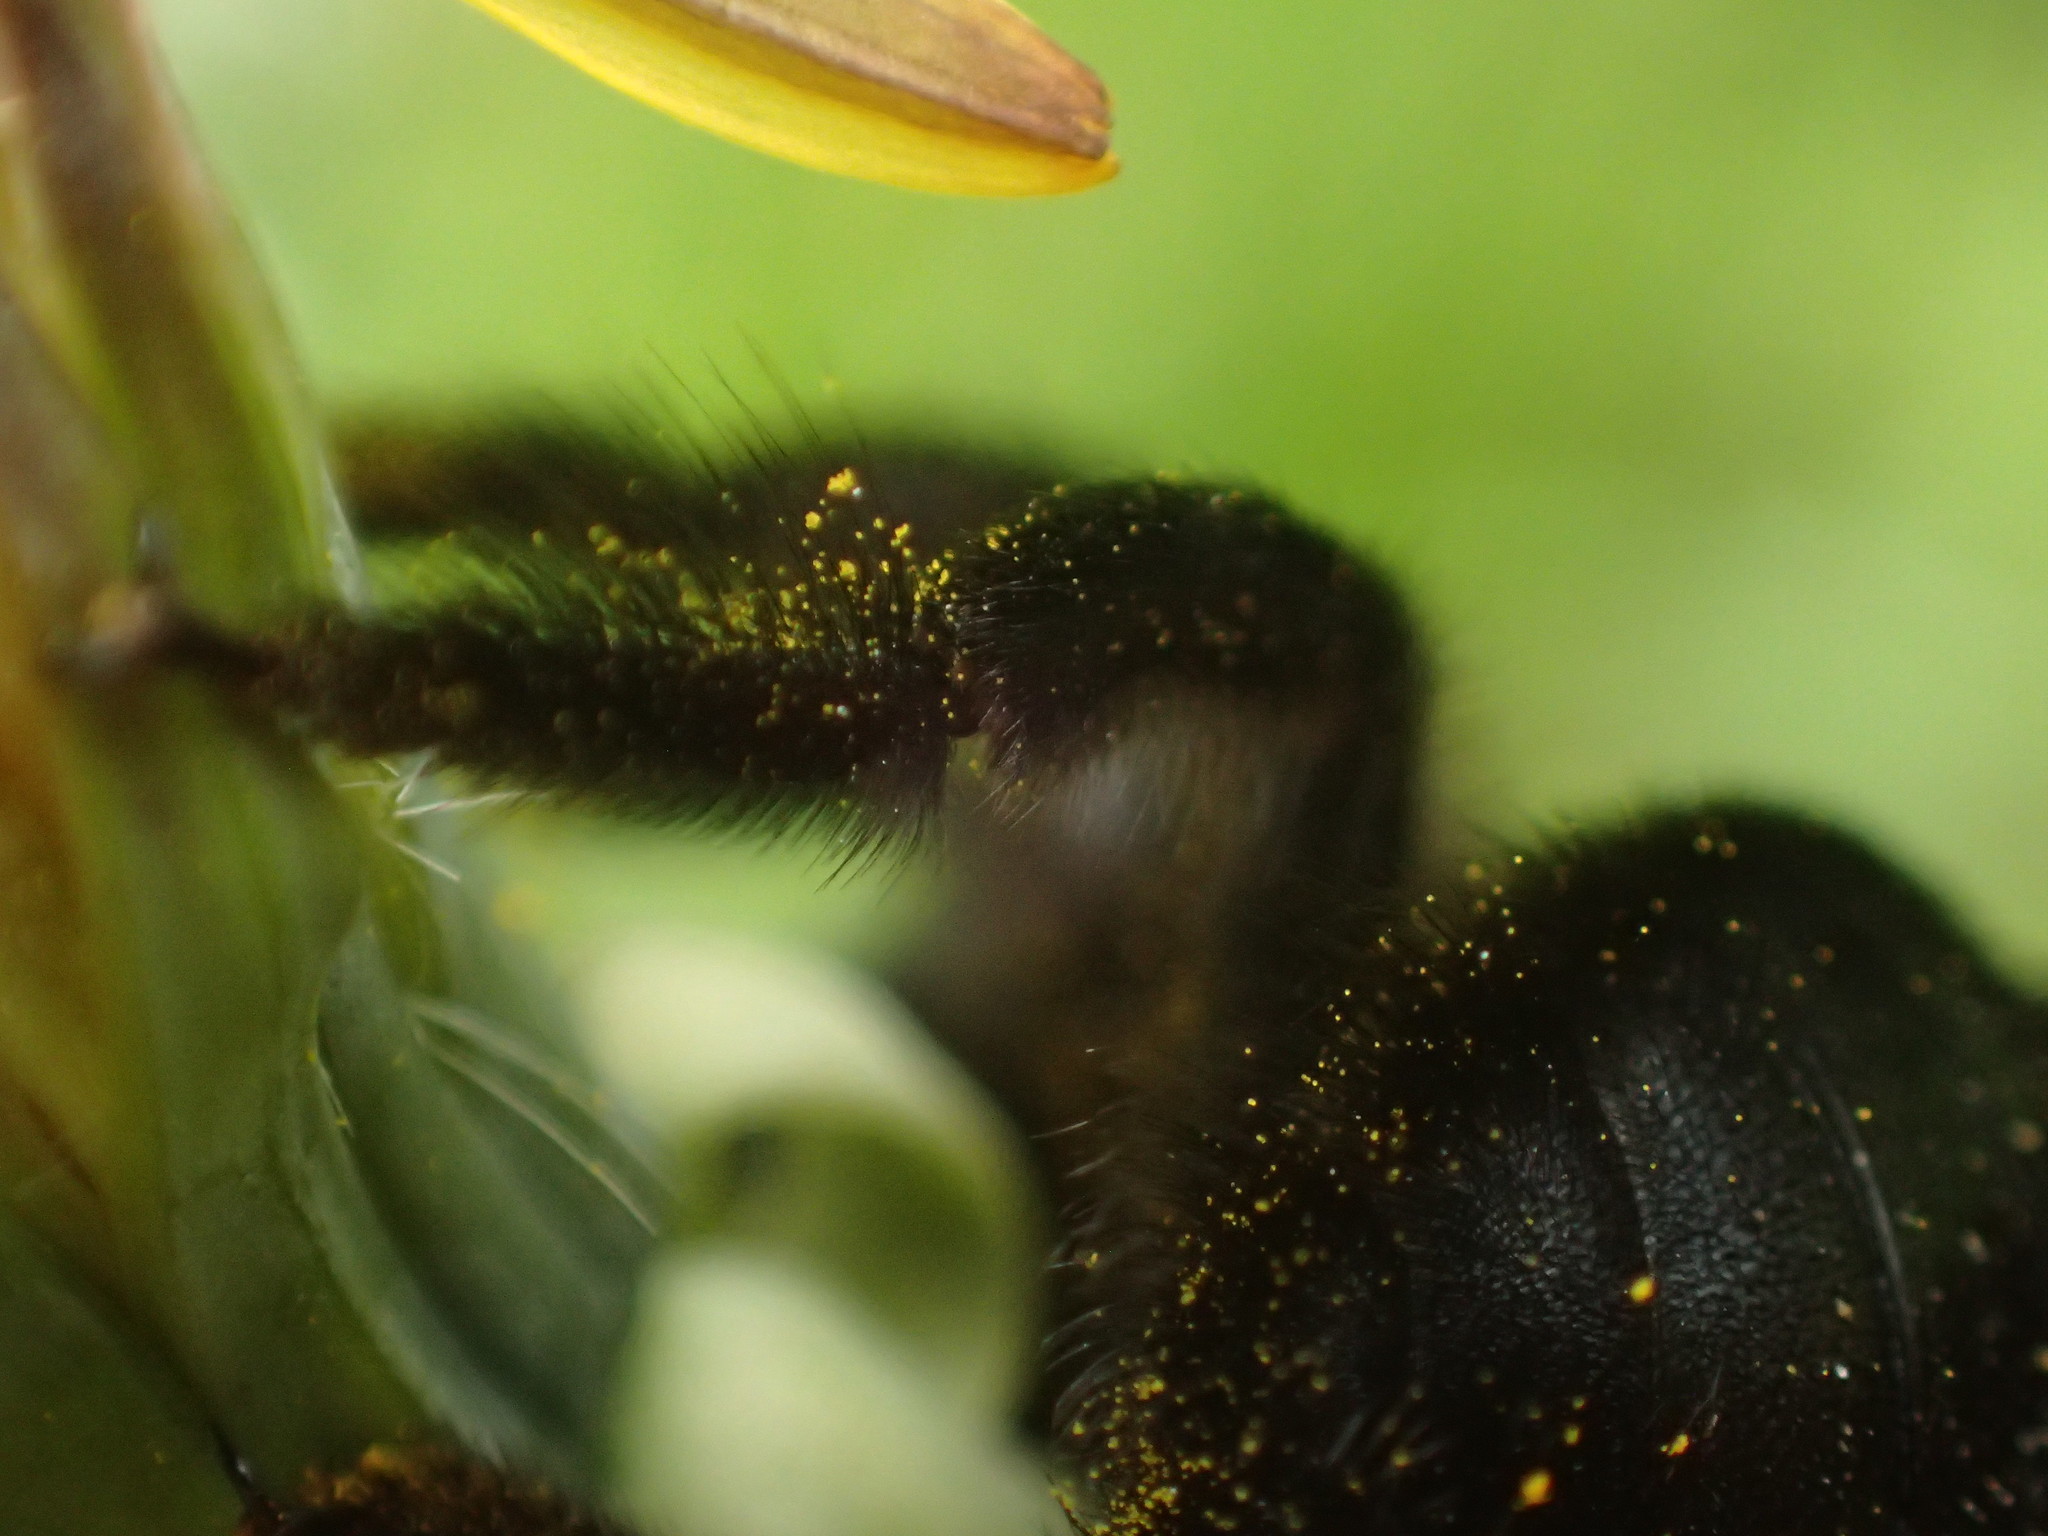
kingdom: Animalia
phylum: Arthropoda
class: Insecta
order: Hymenoptera
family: Apidae
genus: Xylocopa
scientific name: Xylocopa valga
